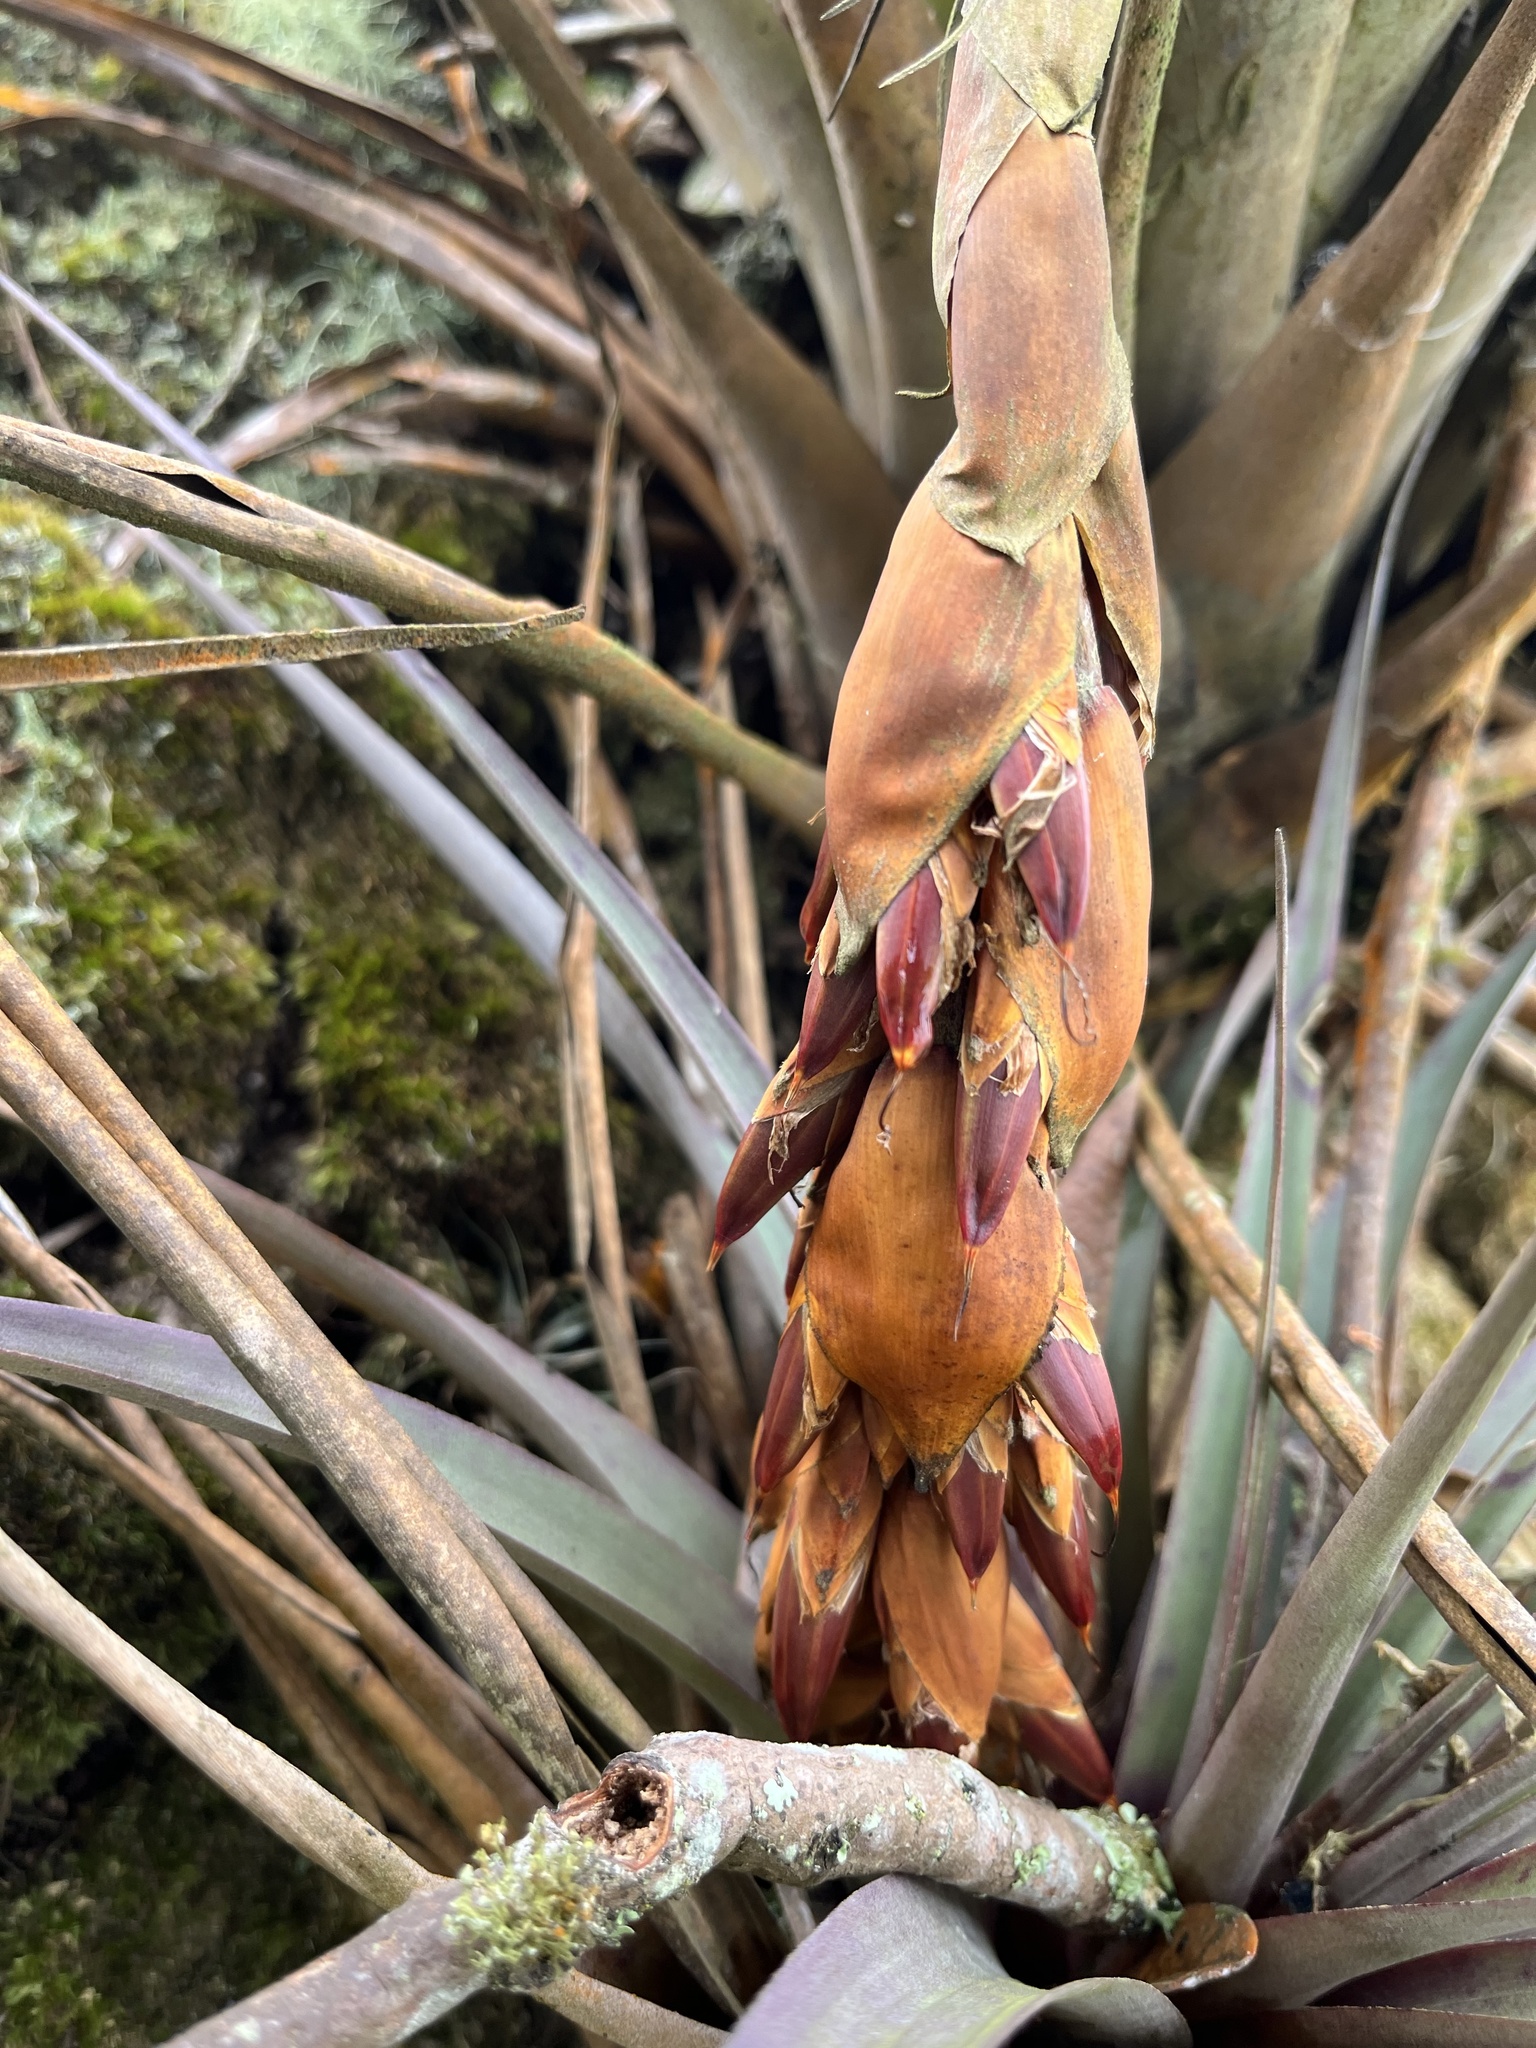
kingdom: Plantae
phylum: Tracheophyta
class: Liliopsida
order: Poales
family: Bromeliaceae
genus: Vriesea
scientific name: Vriesea tequendamae
